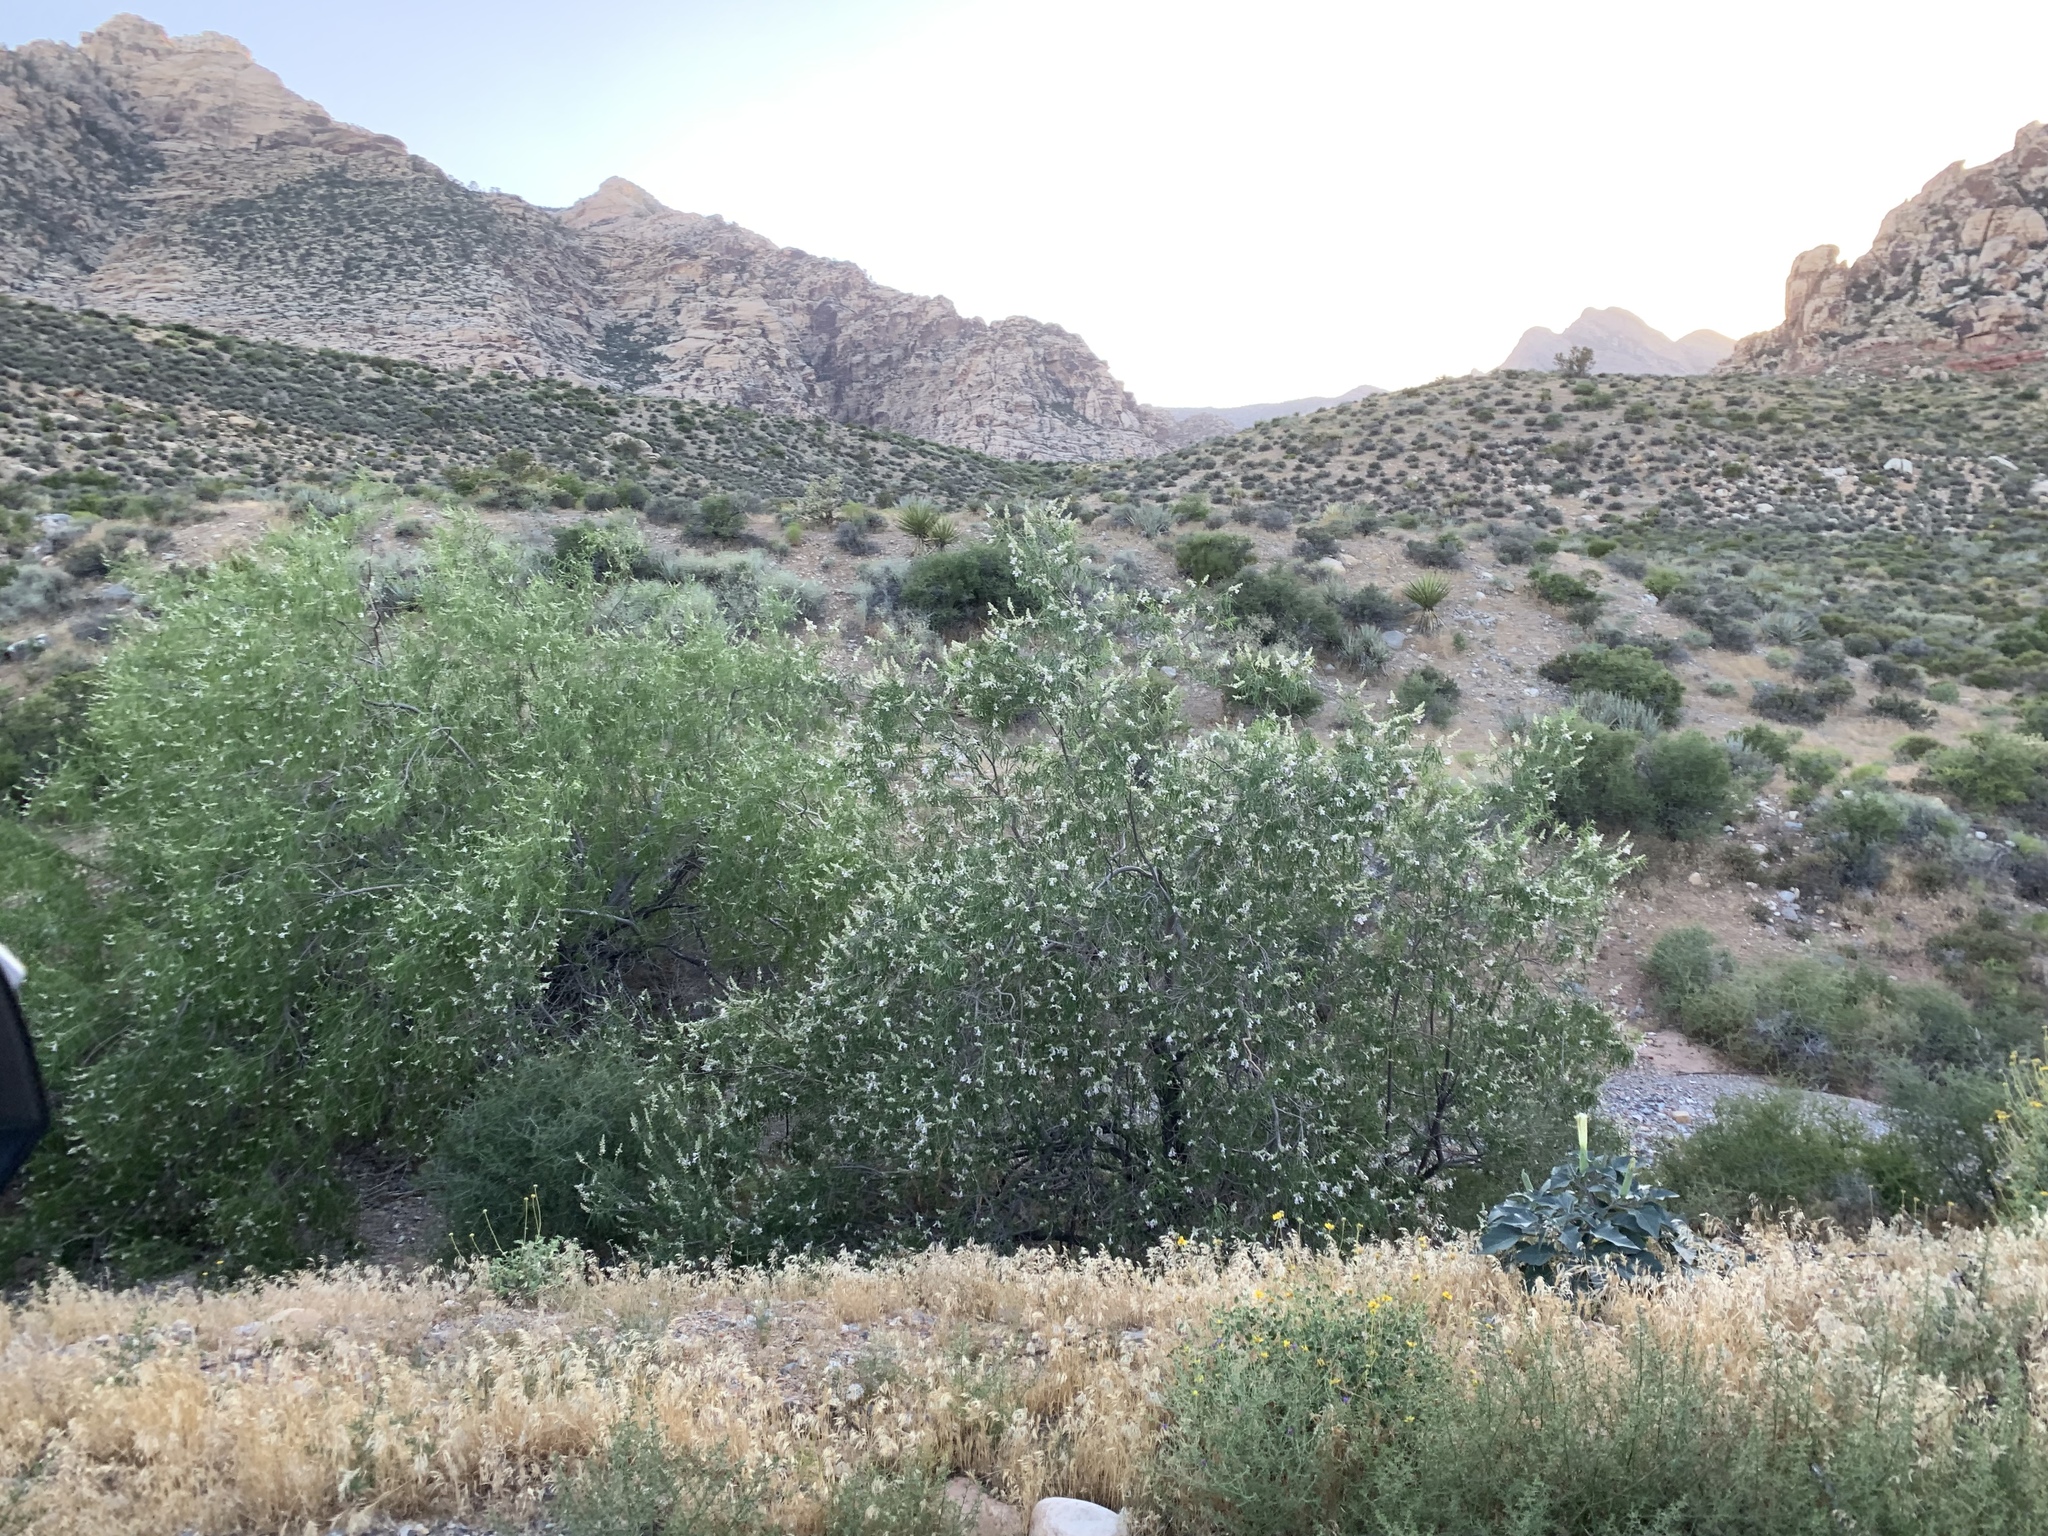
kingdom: Plantae
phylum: Tracheophyta
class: Magnoliopsida
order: Lamiales
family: Bignoniaceae
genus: Chilopsis
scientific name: Chilopsis linearis
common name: Desert-willow
